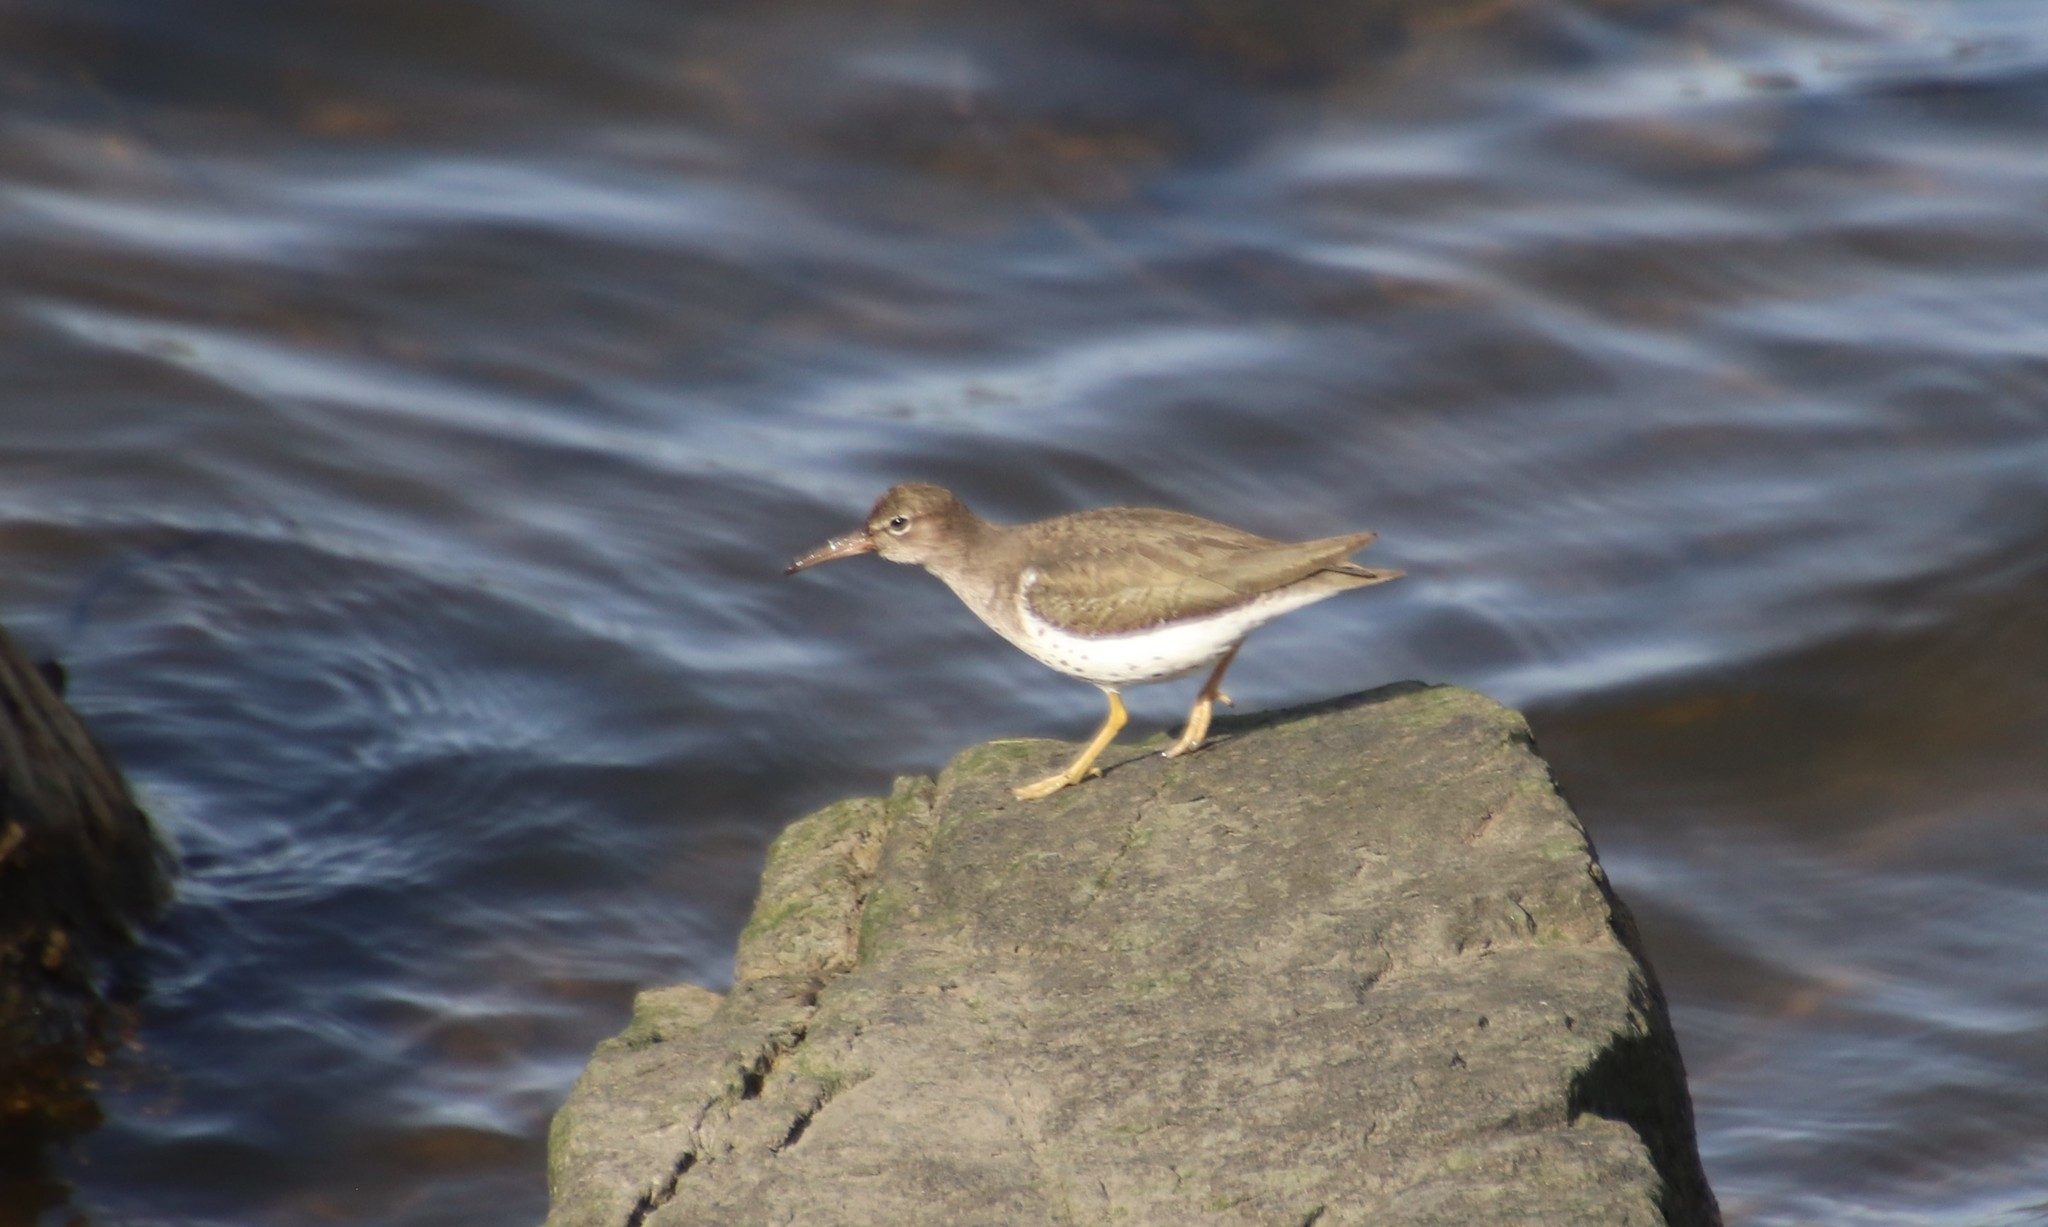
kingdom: Animalia
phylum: Chordata
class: Aves
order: Charadriiformes
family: Scolopacidae
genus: Actitis
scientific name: Actitis macularius
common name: Spotted sandpiper
